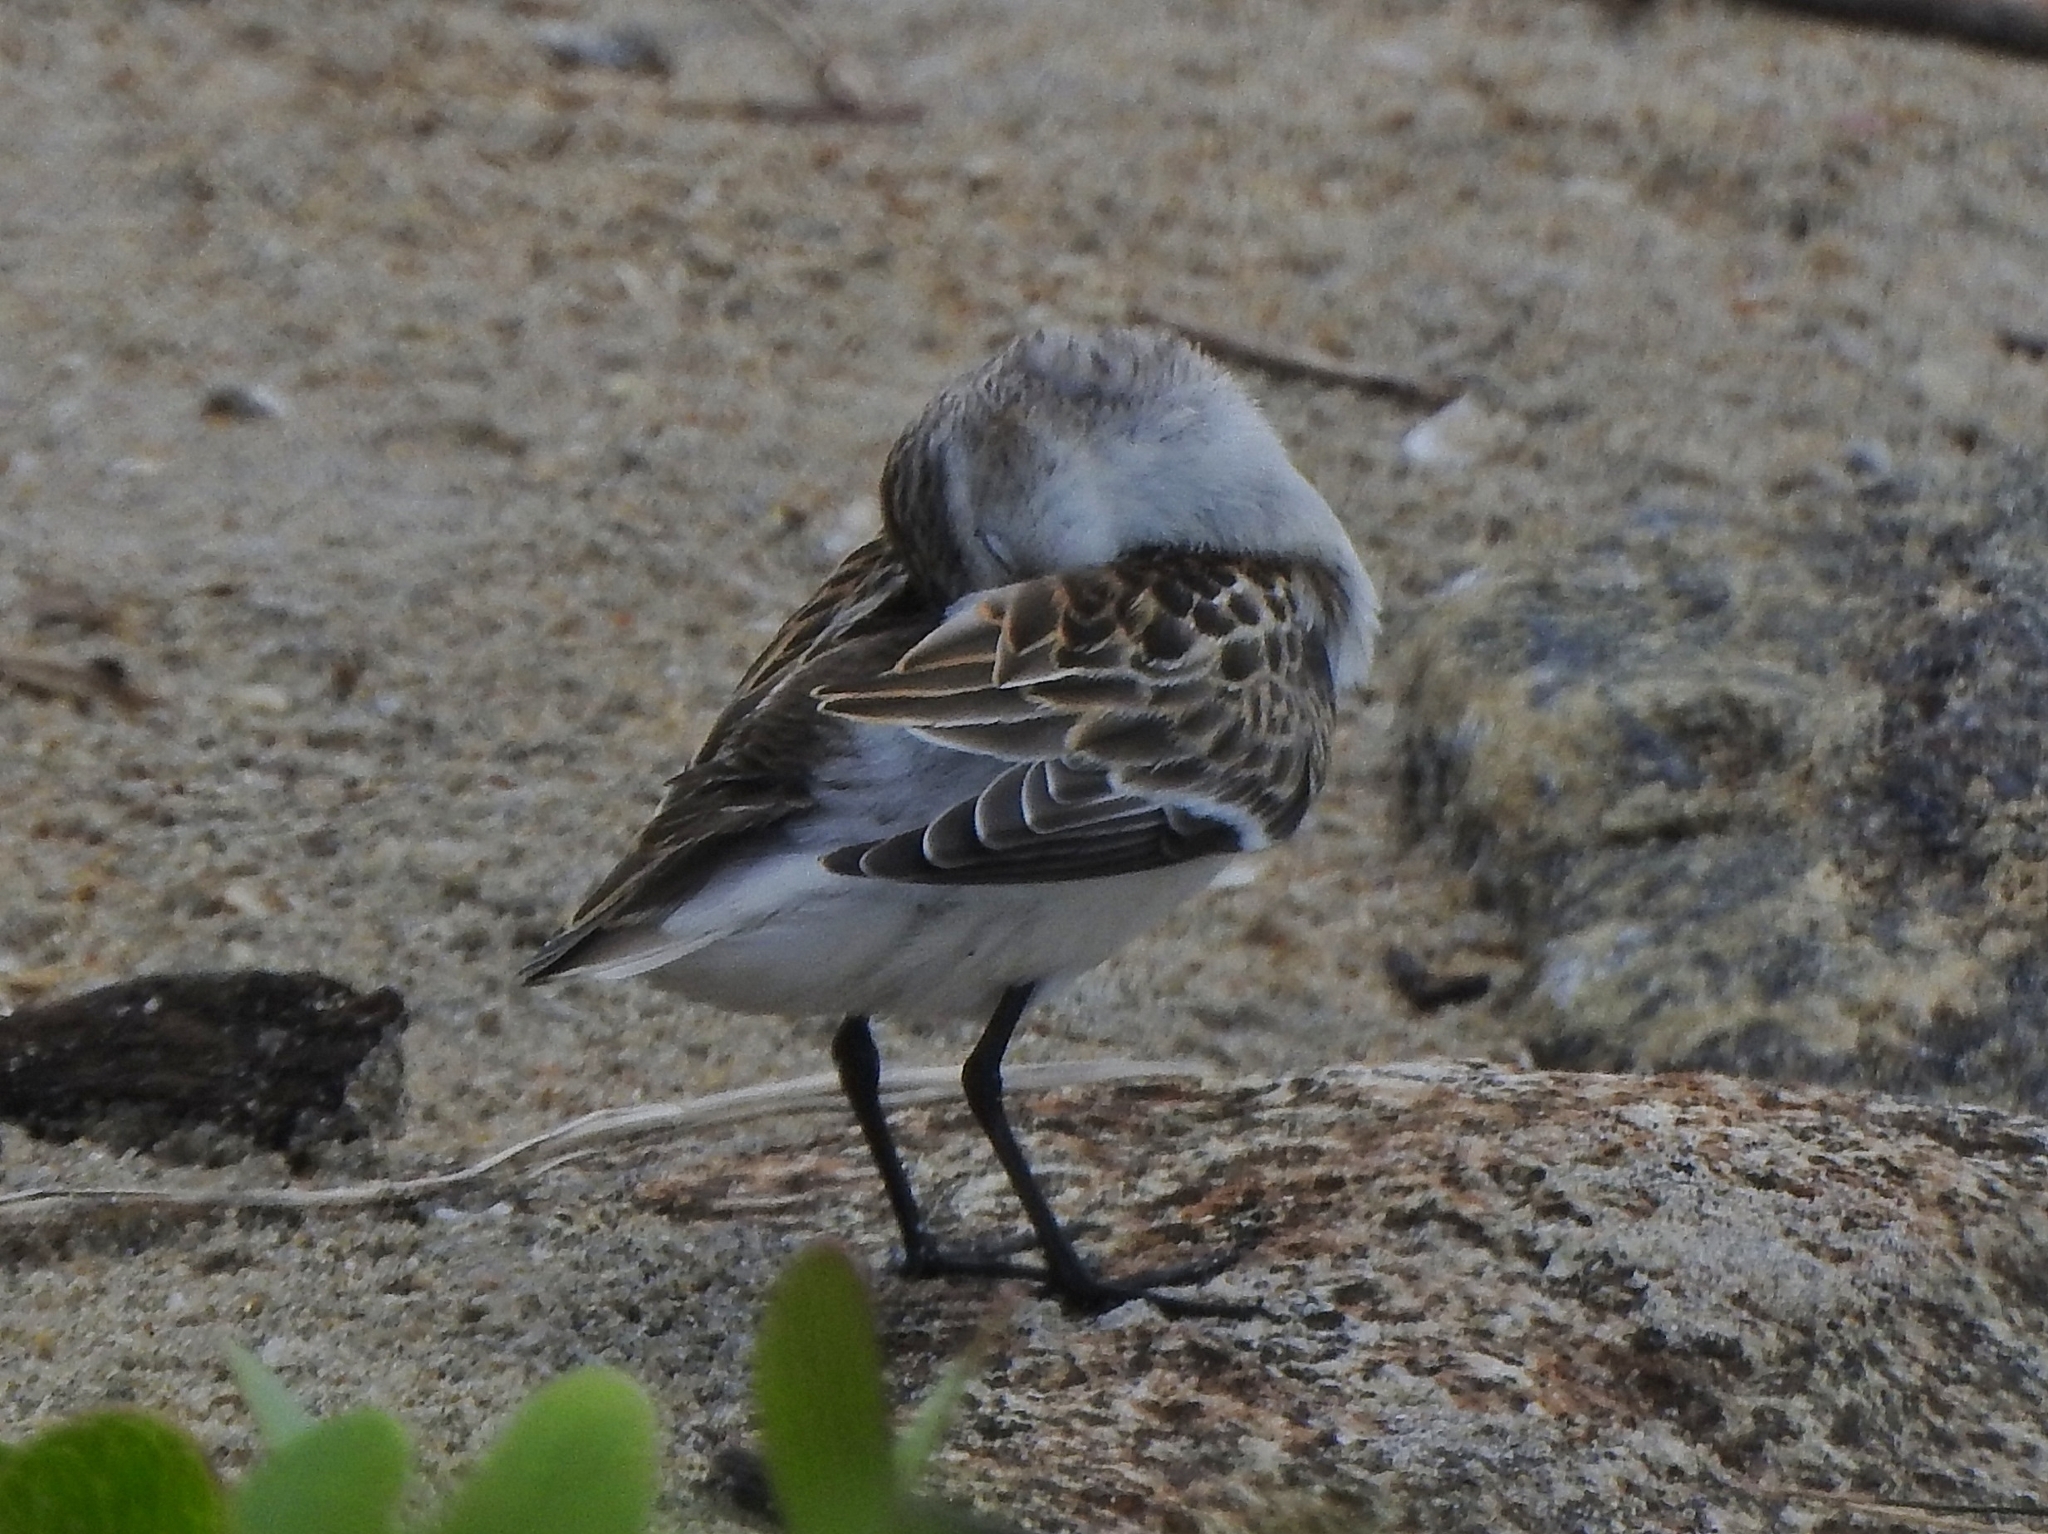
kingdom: Animalia
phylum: Chordata
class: Aves
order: Charadriiformes
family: Scolopacidae
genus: Calidris
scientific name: Calidris minuta
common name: Little stint
